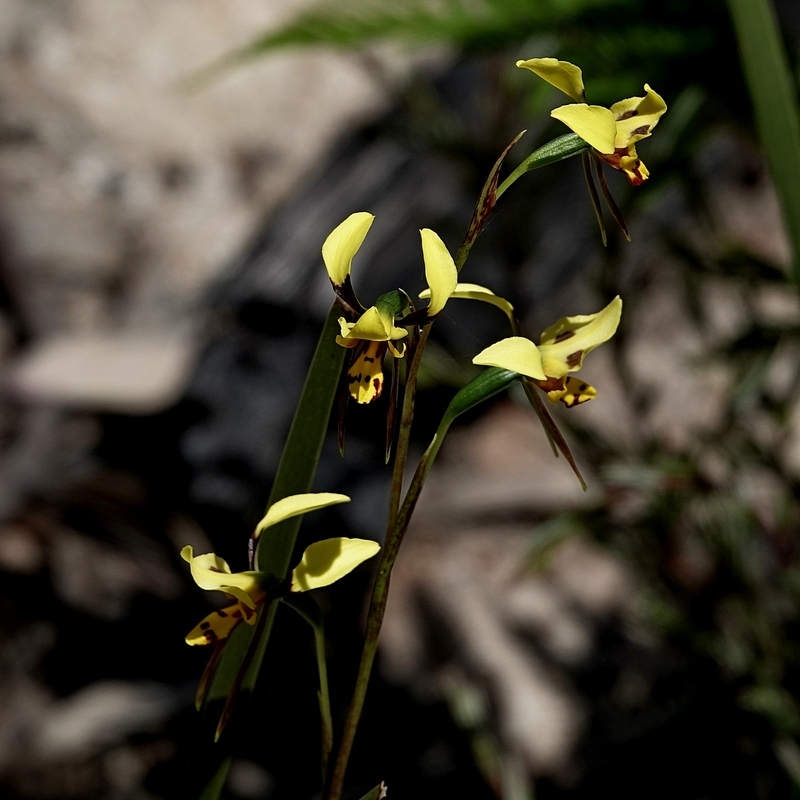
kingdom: Plantae
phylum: Tracheophyta
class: Liliopsida
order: Asparagales
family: Orchidaceae
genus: Diuris
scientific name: Diuris sulphurea
